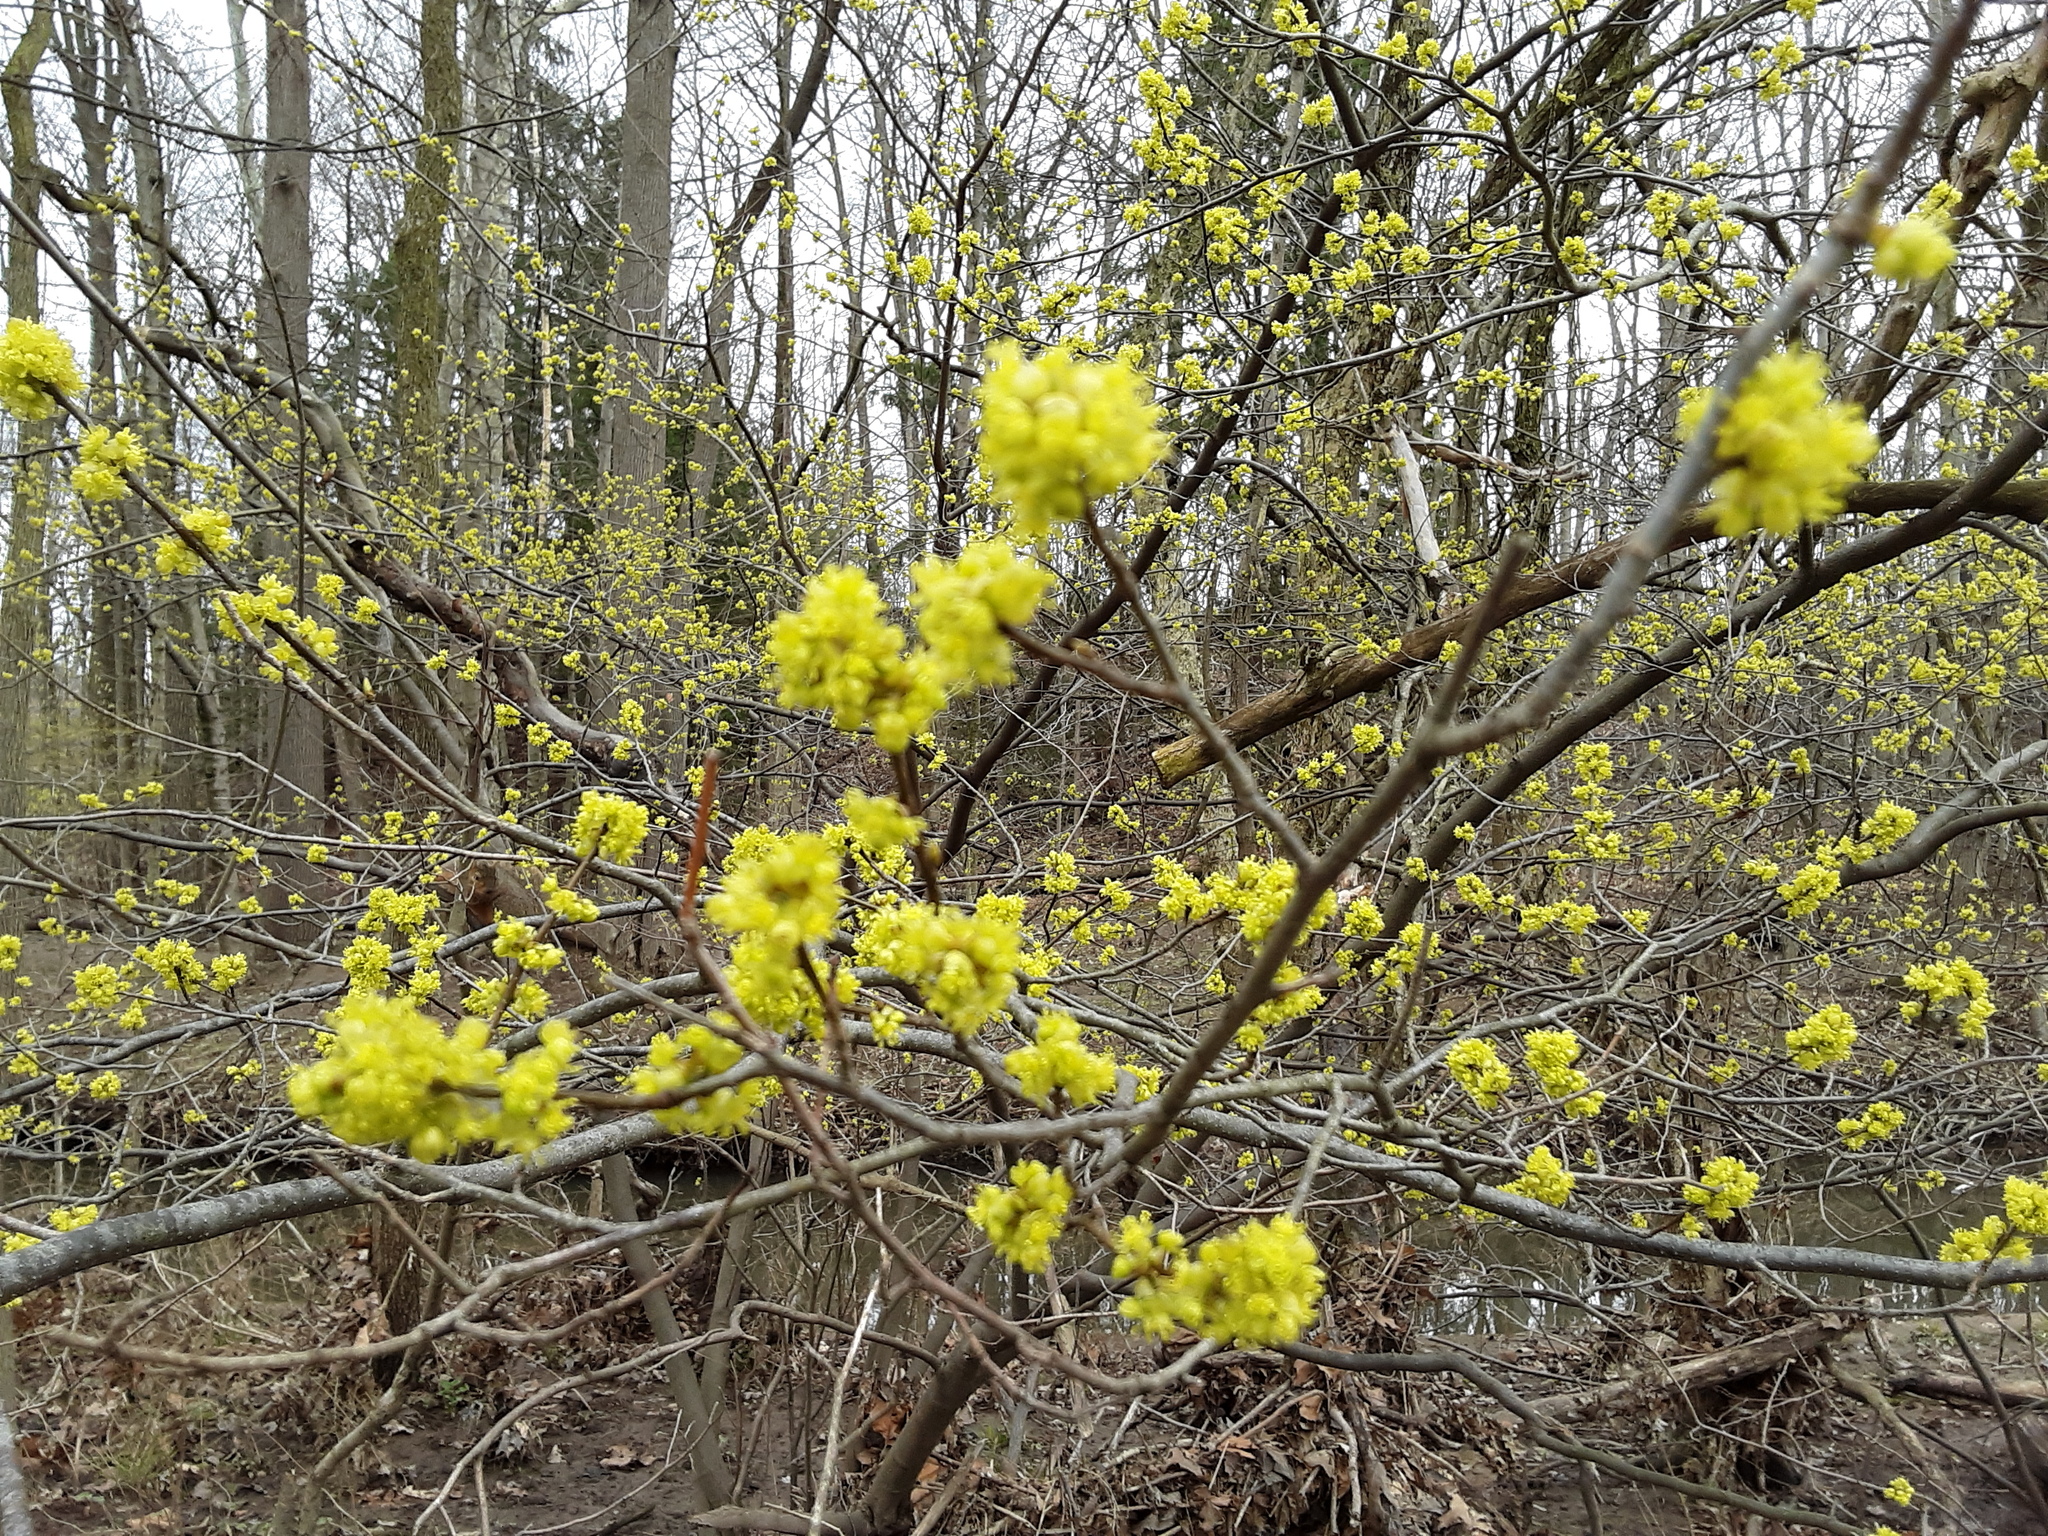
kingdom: Plantae
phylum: Tracheophyta
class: Magnoliopsida
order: Laurales
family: Lauraceae
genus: Lindera
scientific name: Lindera benzoin
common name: Spicebush
